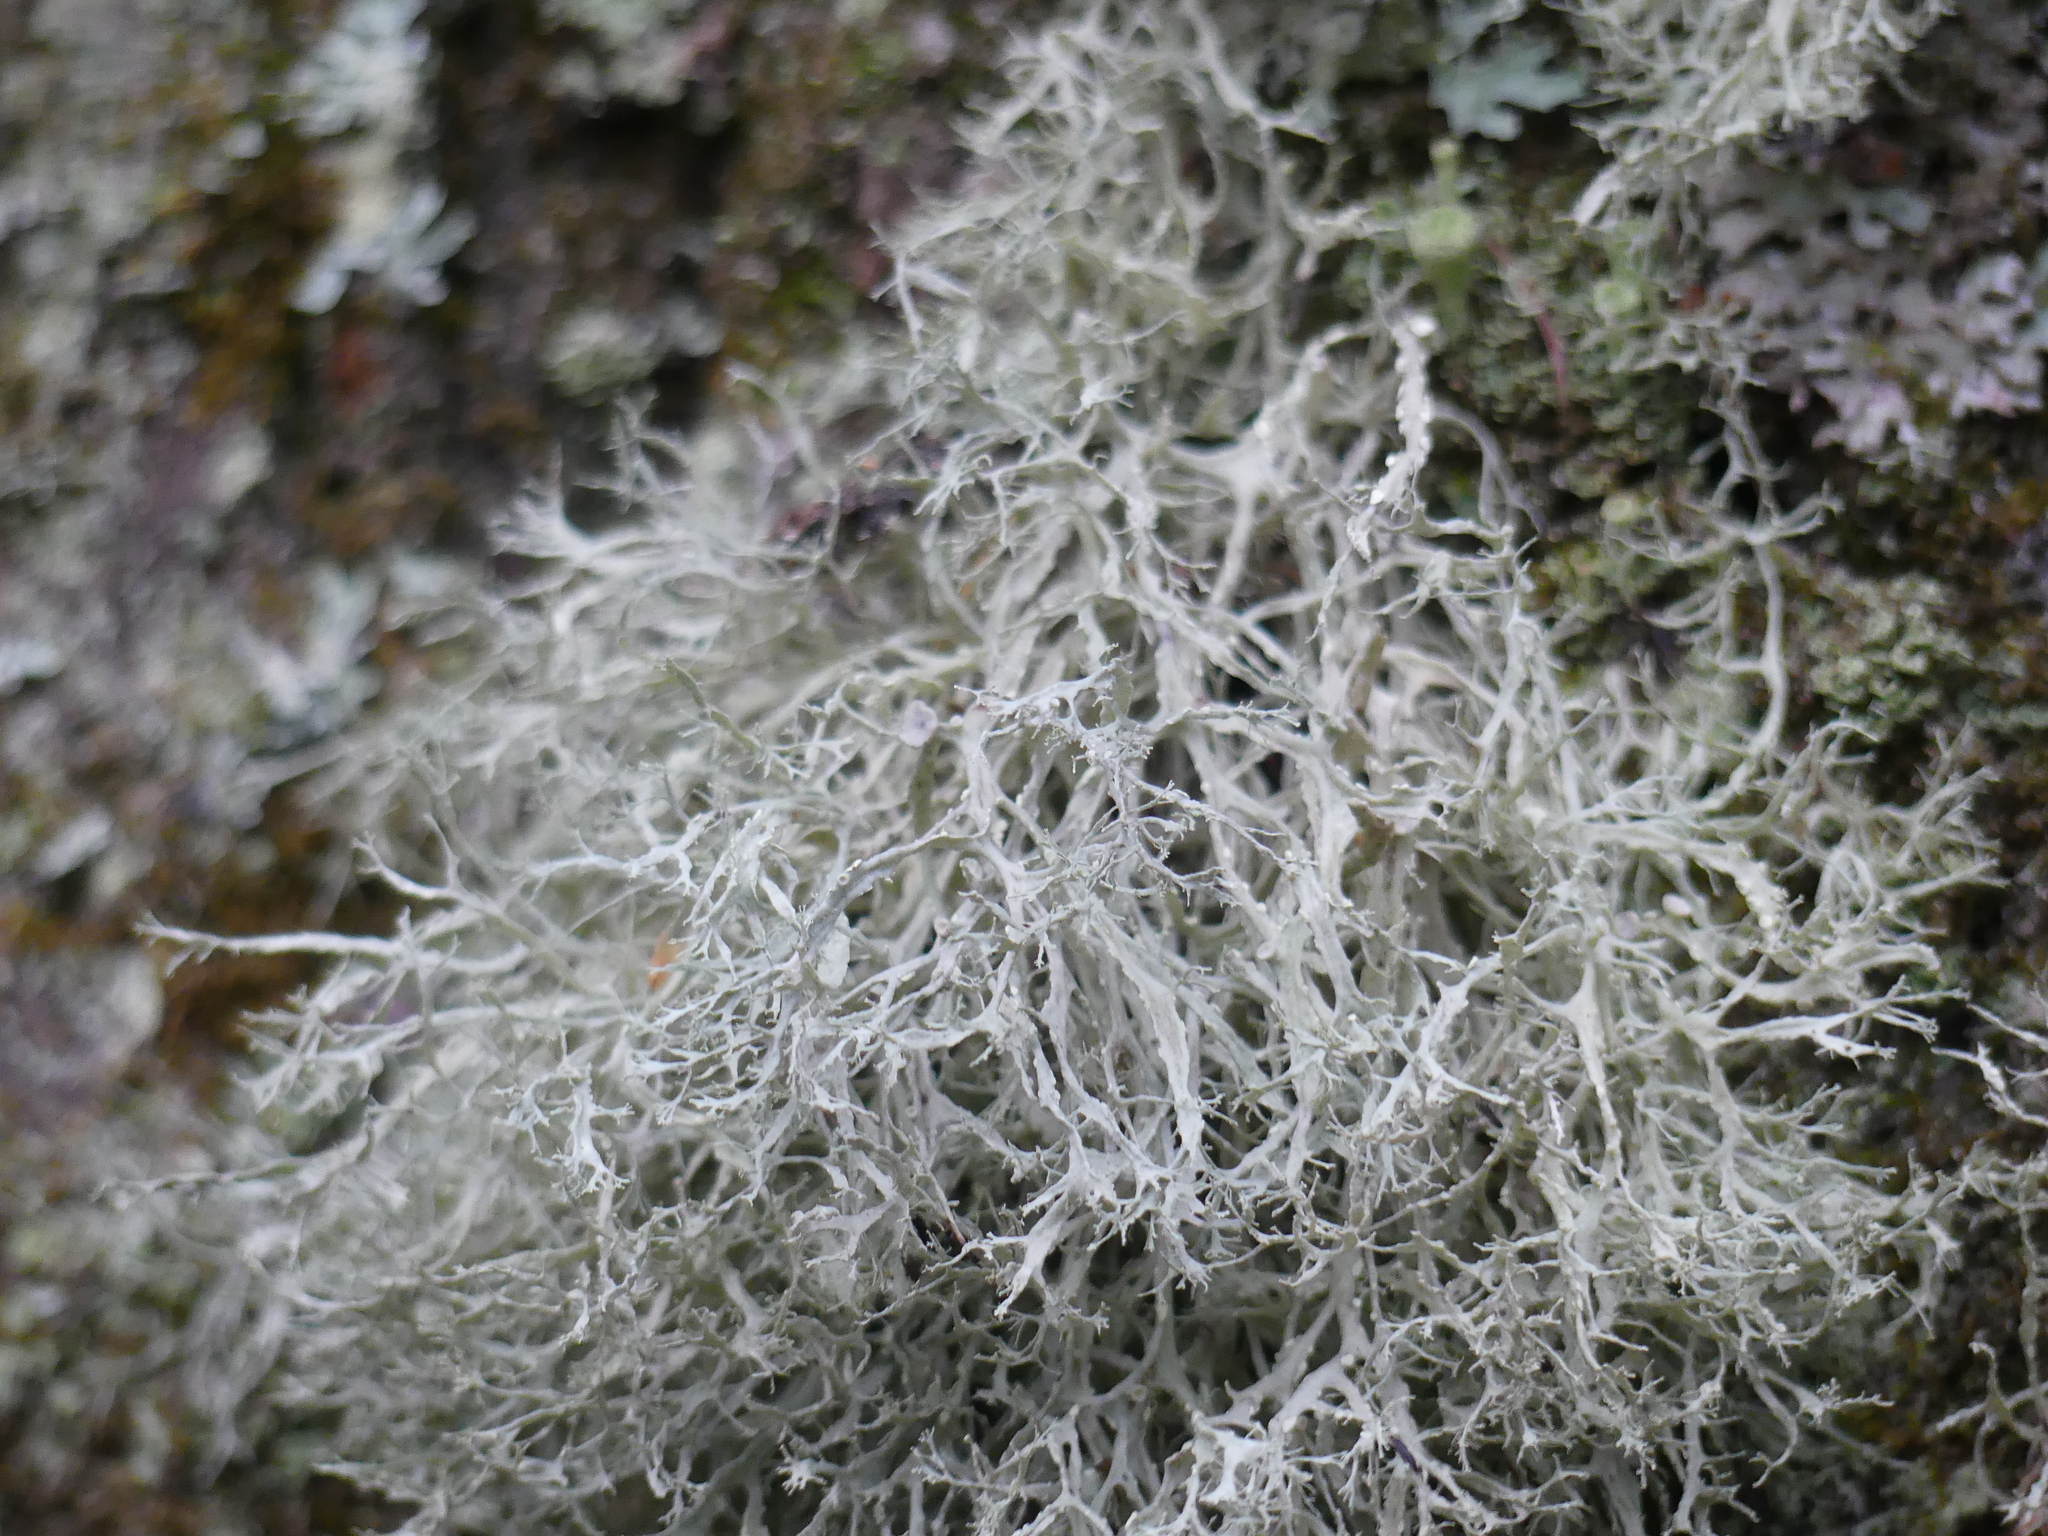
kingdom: Fungi
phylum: Ascomycota
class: Lecanoromycetes
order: Lecanorales
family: Ramalinaceae
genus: Ramalina
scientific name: Ramalina farinacea
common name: Farinose cartilage lichen
